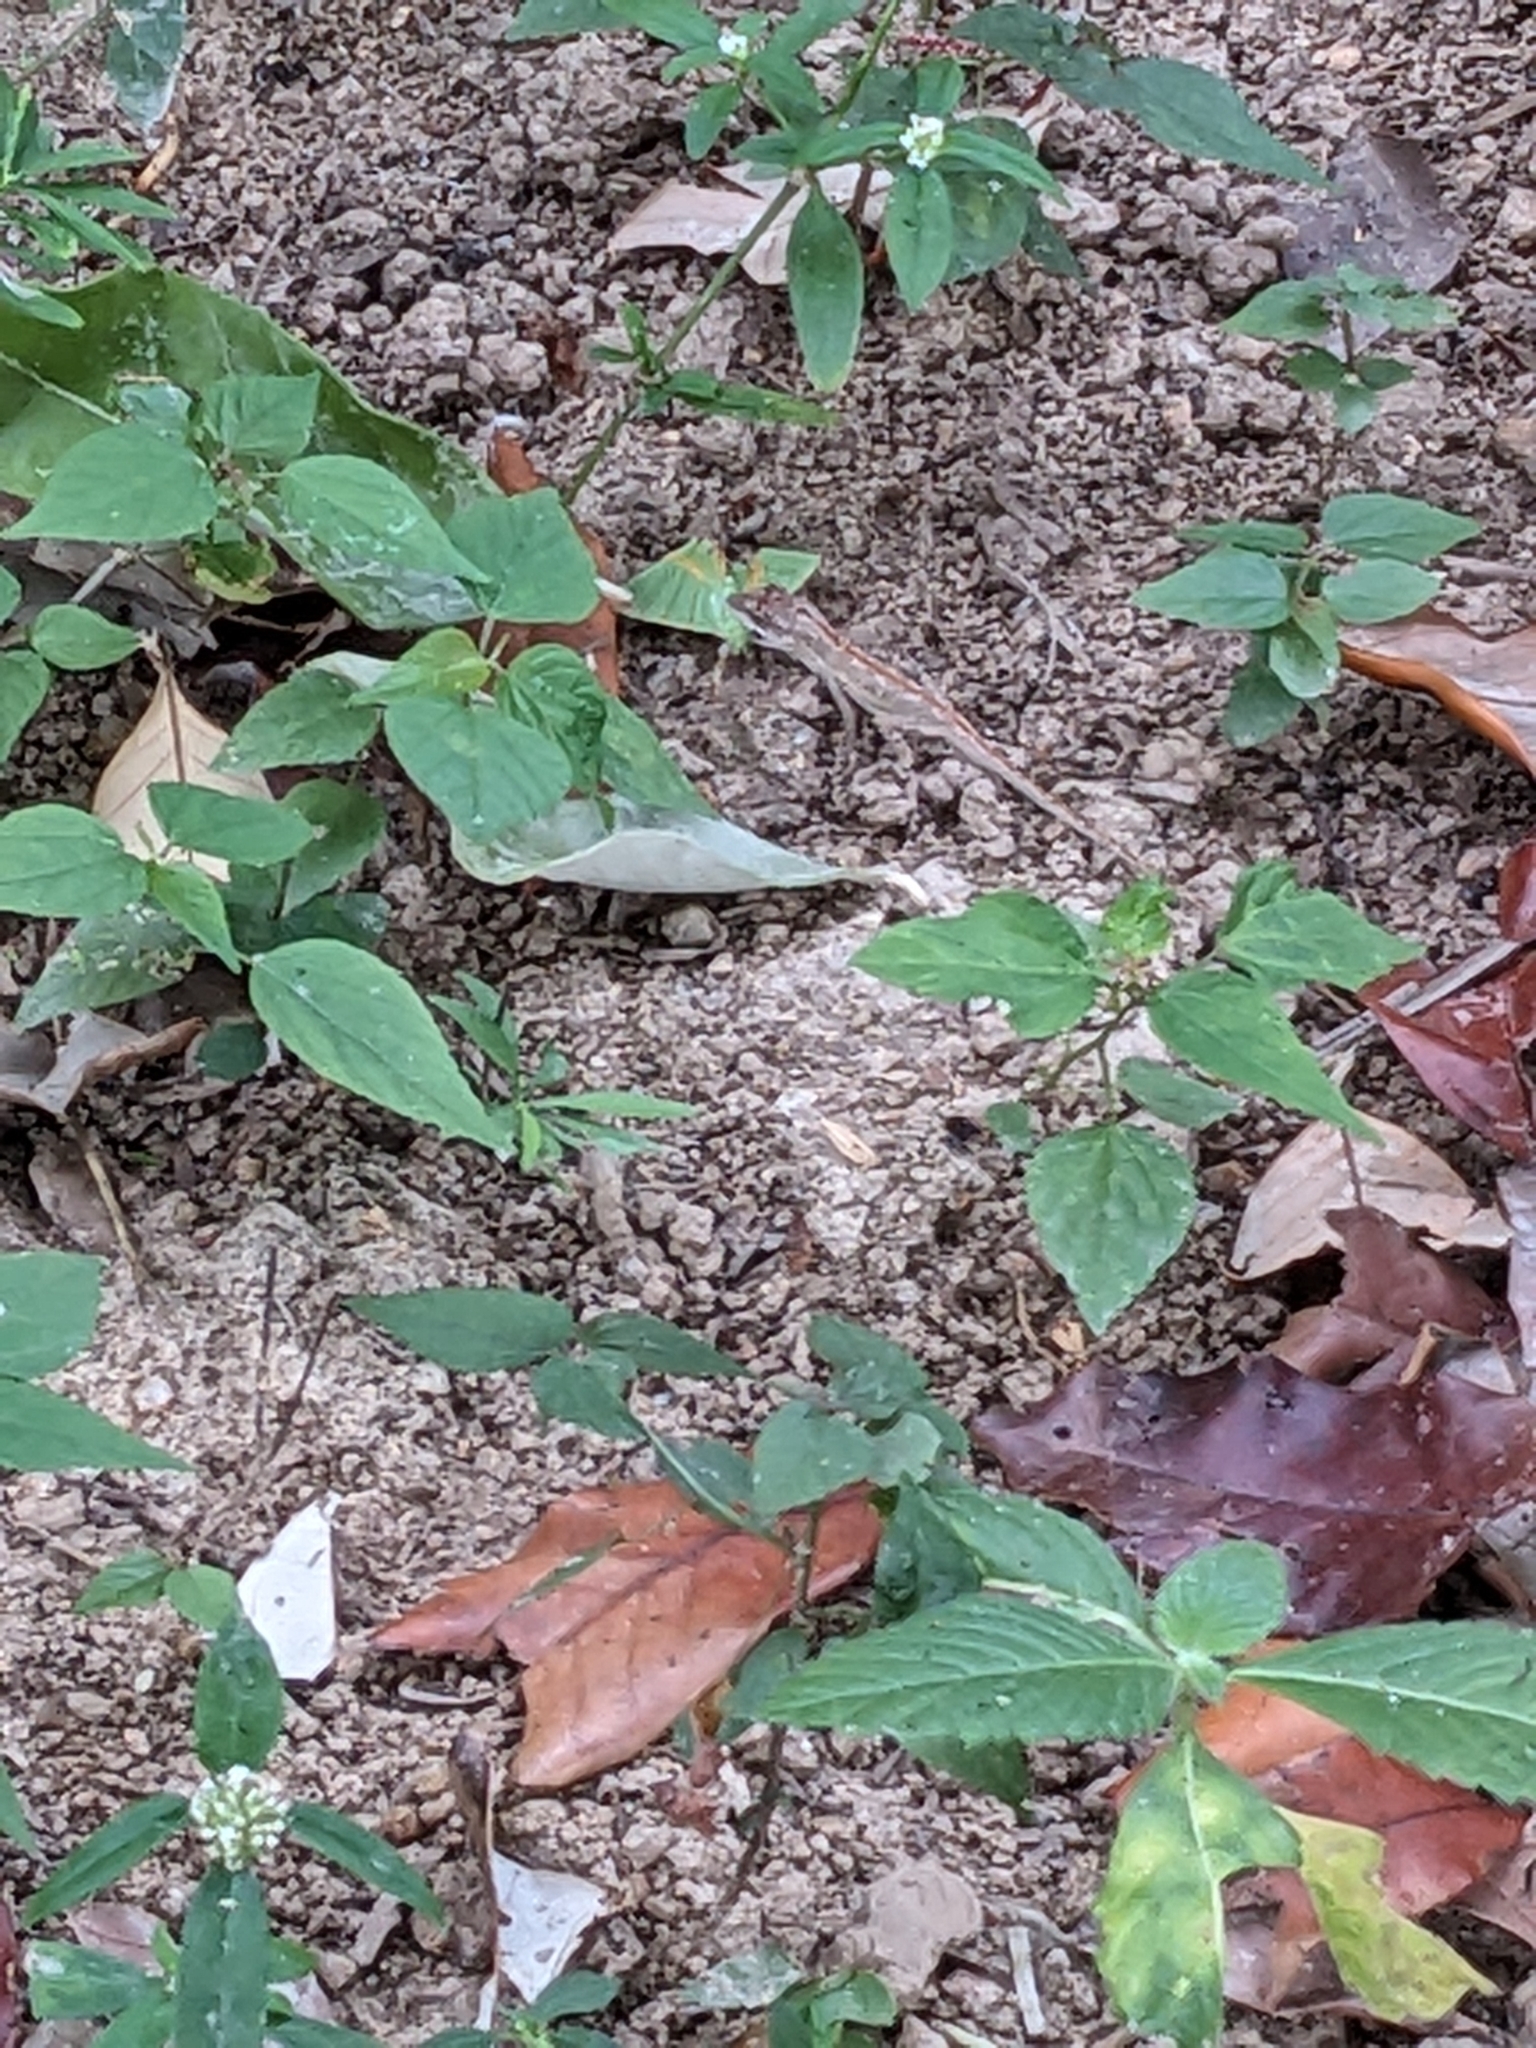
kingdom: Animalia
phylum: Chordata
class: Squamata
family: Dactyloidae
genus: Anolis
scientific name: Anolis nebulosus
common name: Clouded anole
